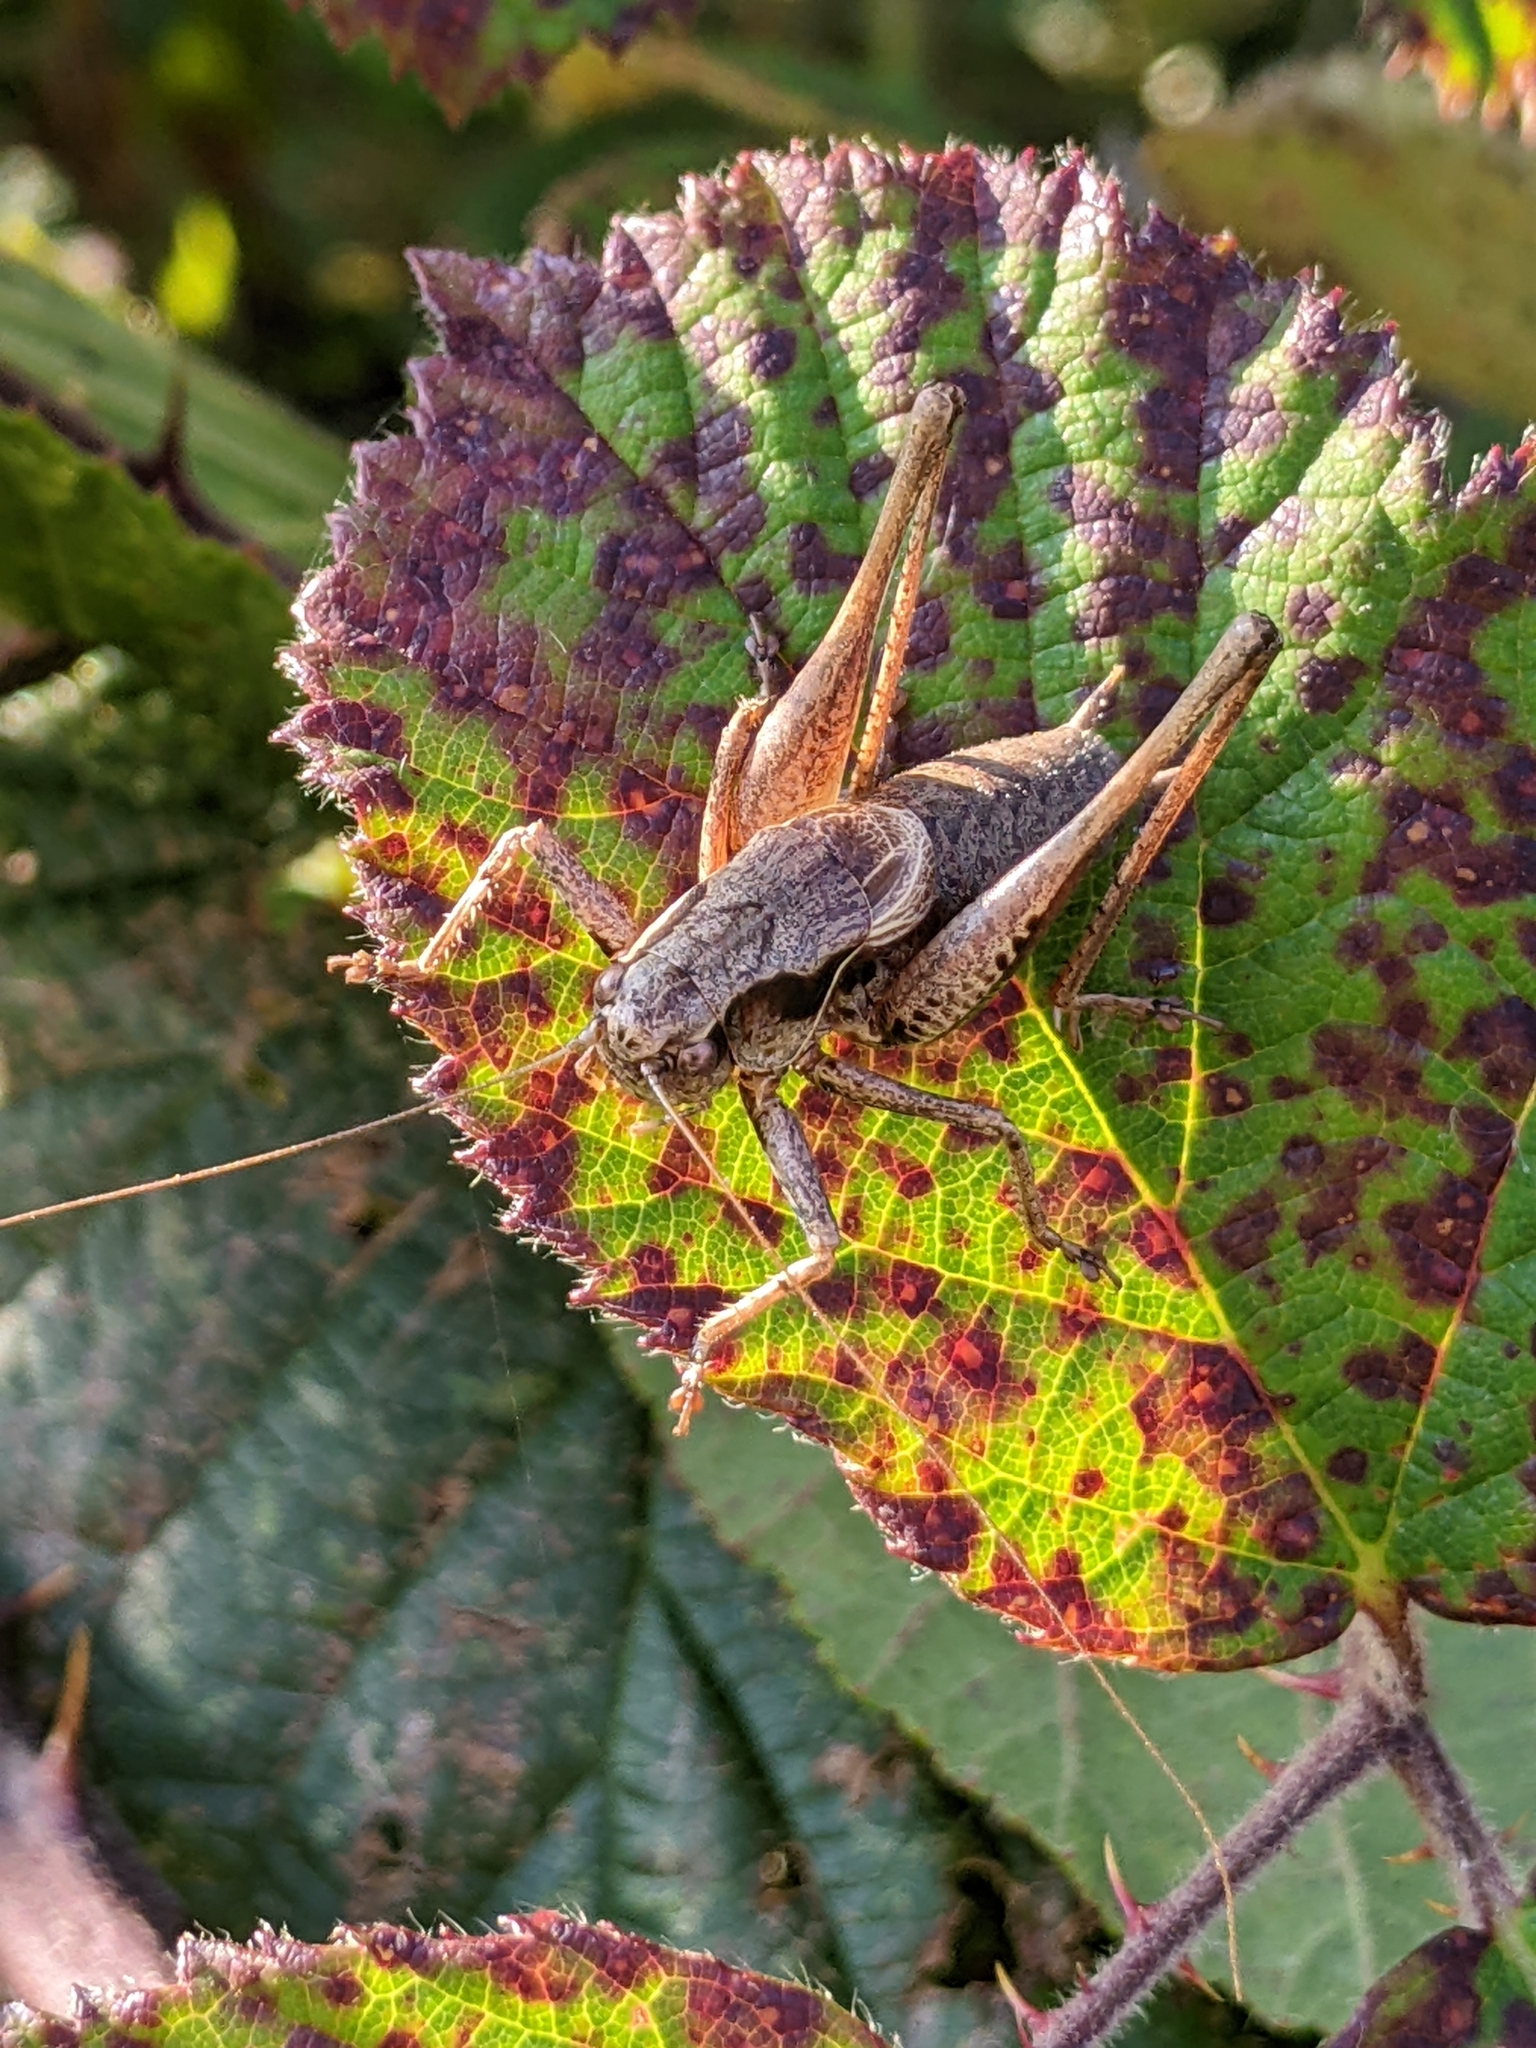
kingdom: Animalia
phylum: Arthropoda
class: Insecta
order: Orthoptera
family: Tettigoniidae
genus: Pholidoptera
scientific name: Pholidoptera griseoaptera
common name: Dark bush-cricket
